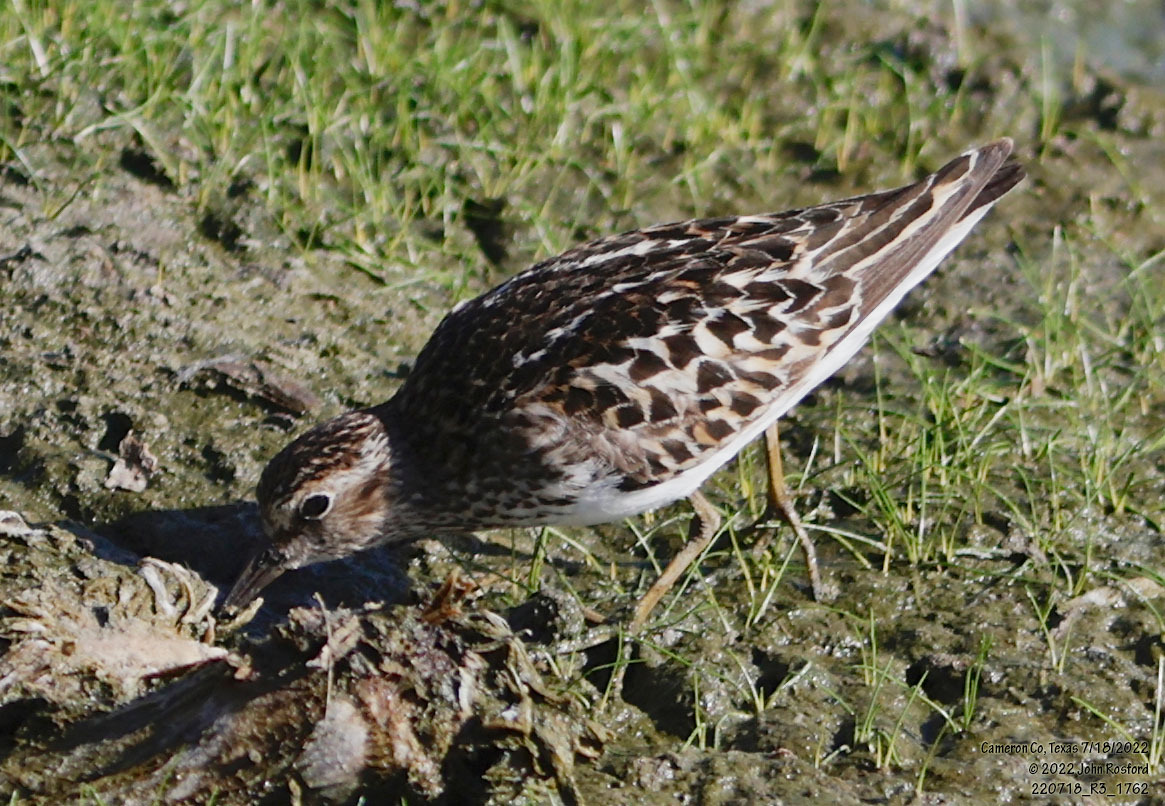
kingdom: Animalia
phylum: Chordata
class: Aves
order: Charadriiformes
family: Scolopacidae
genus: Calidris
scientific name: Calidris minutilla
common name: Least sandpiper
